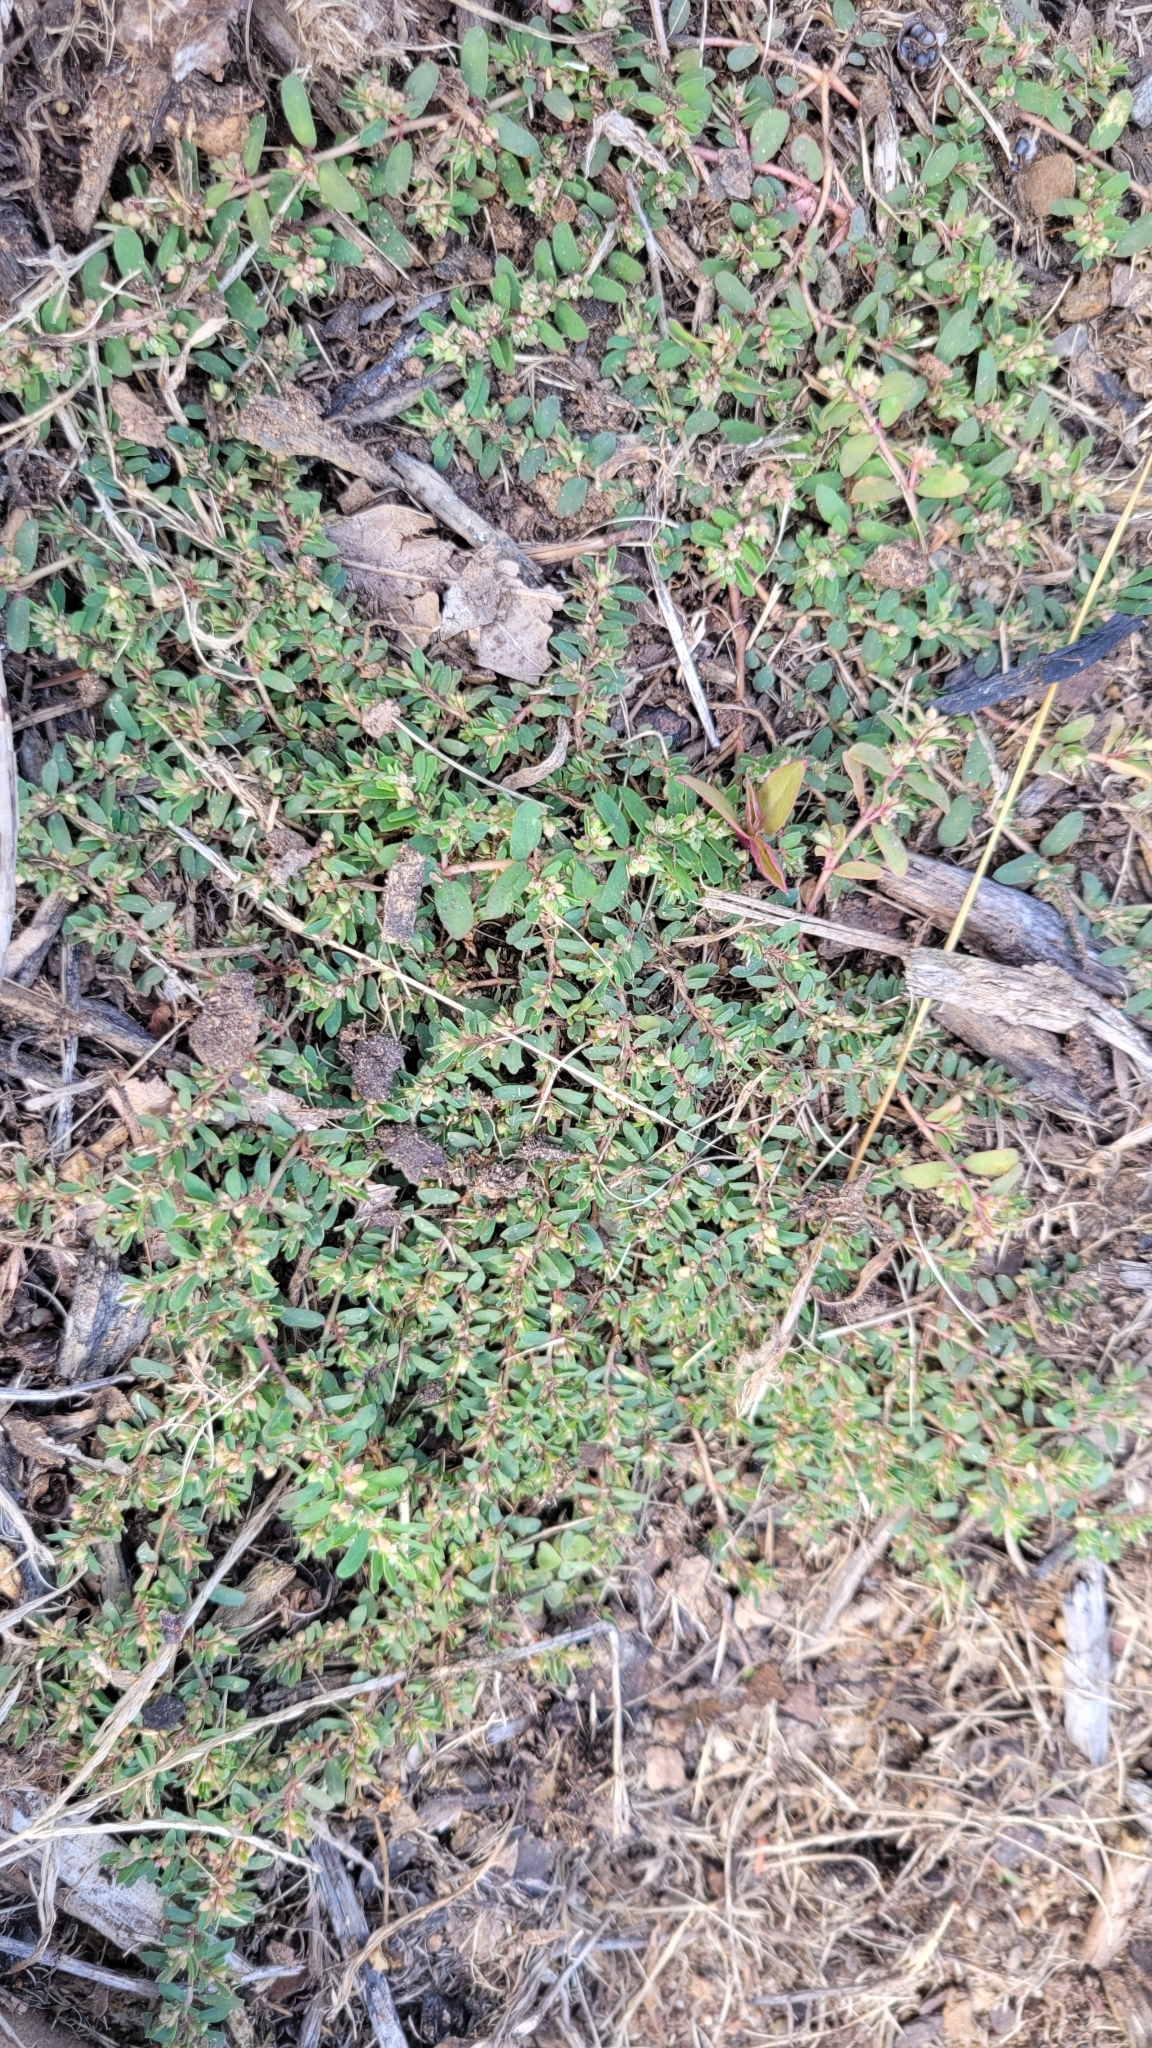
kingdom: Plantae
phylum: Tracheophyta
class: Magnoliopsida
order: Malpighiales
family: Euphorbiaceae
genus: Euphorbia
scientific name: Euphorbia maculata
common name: Spotted spurge
